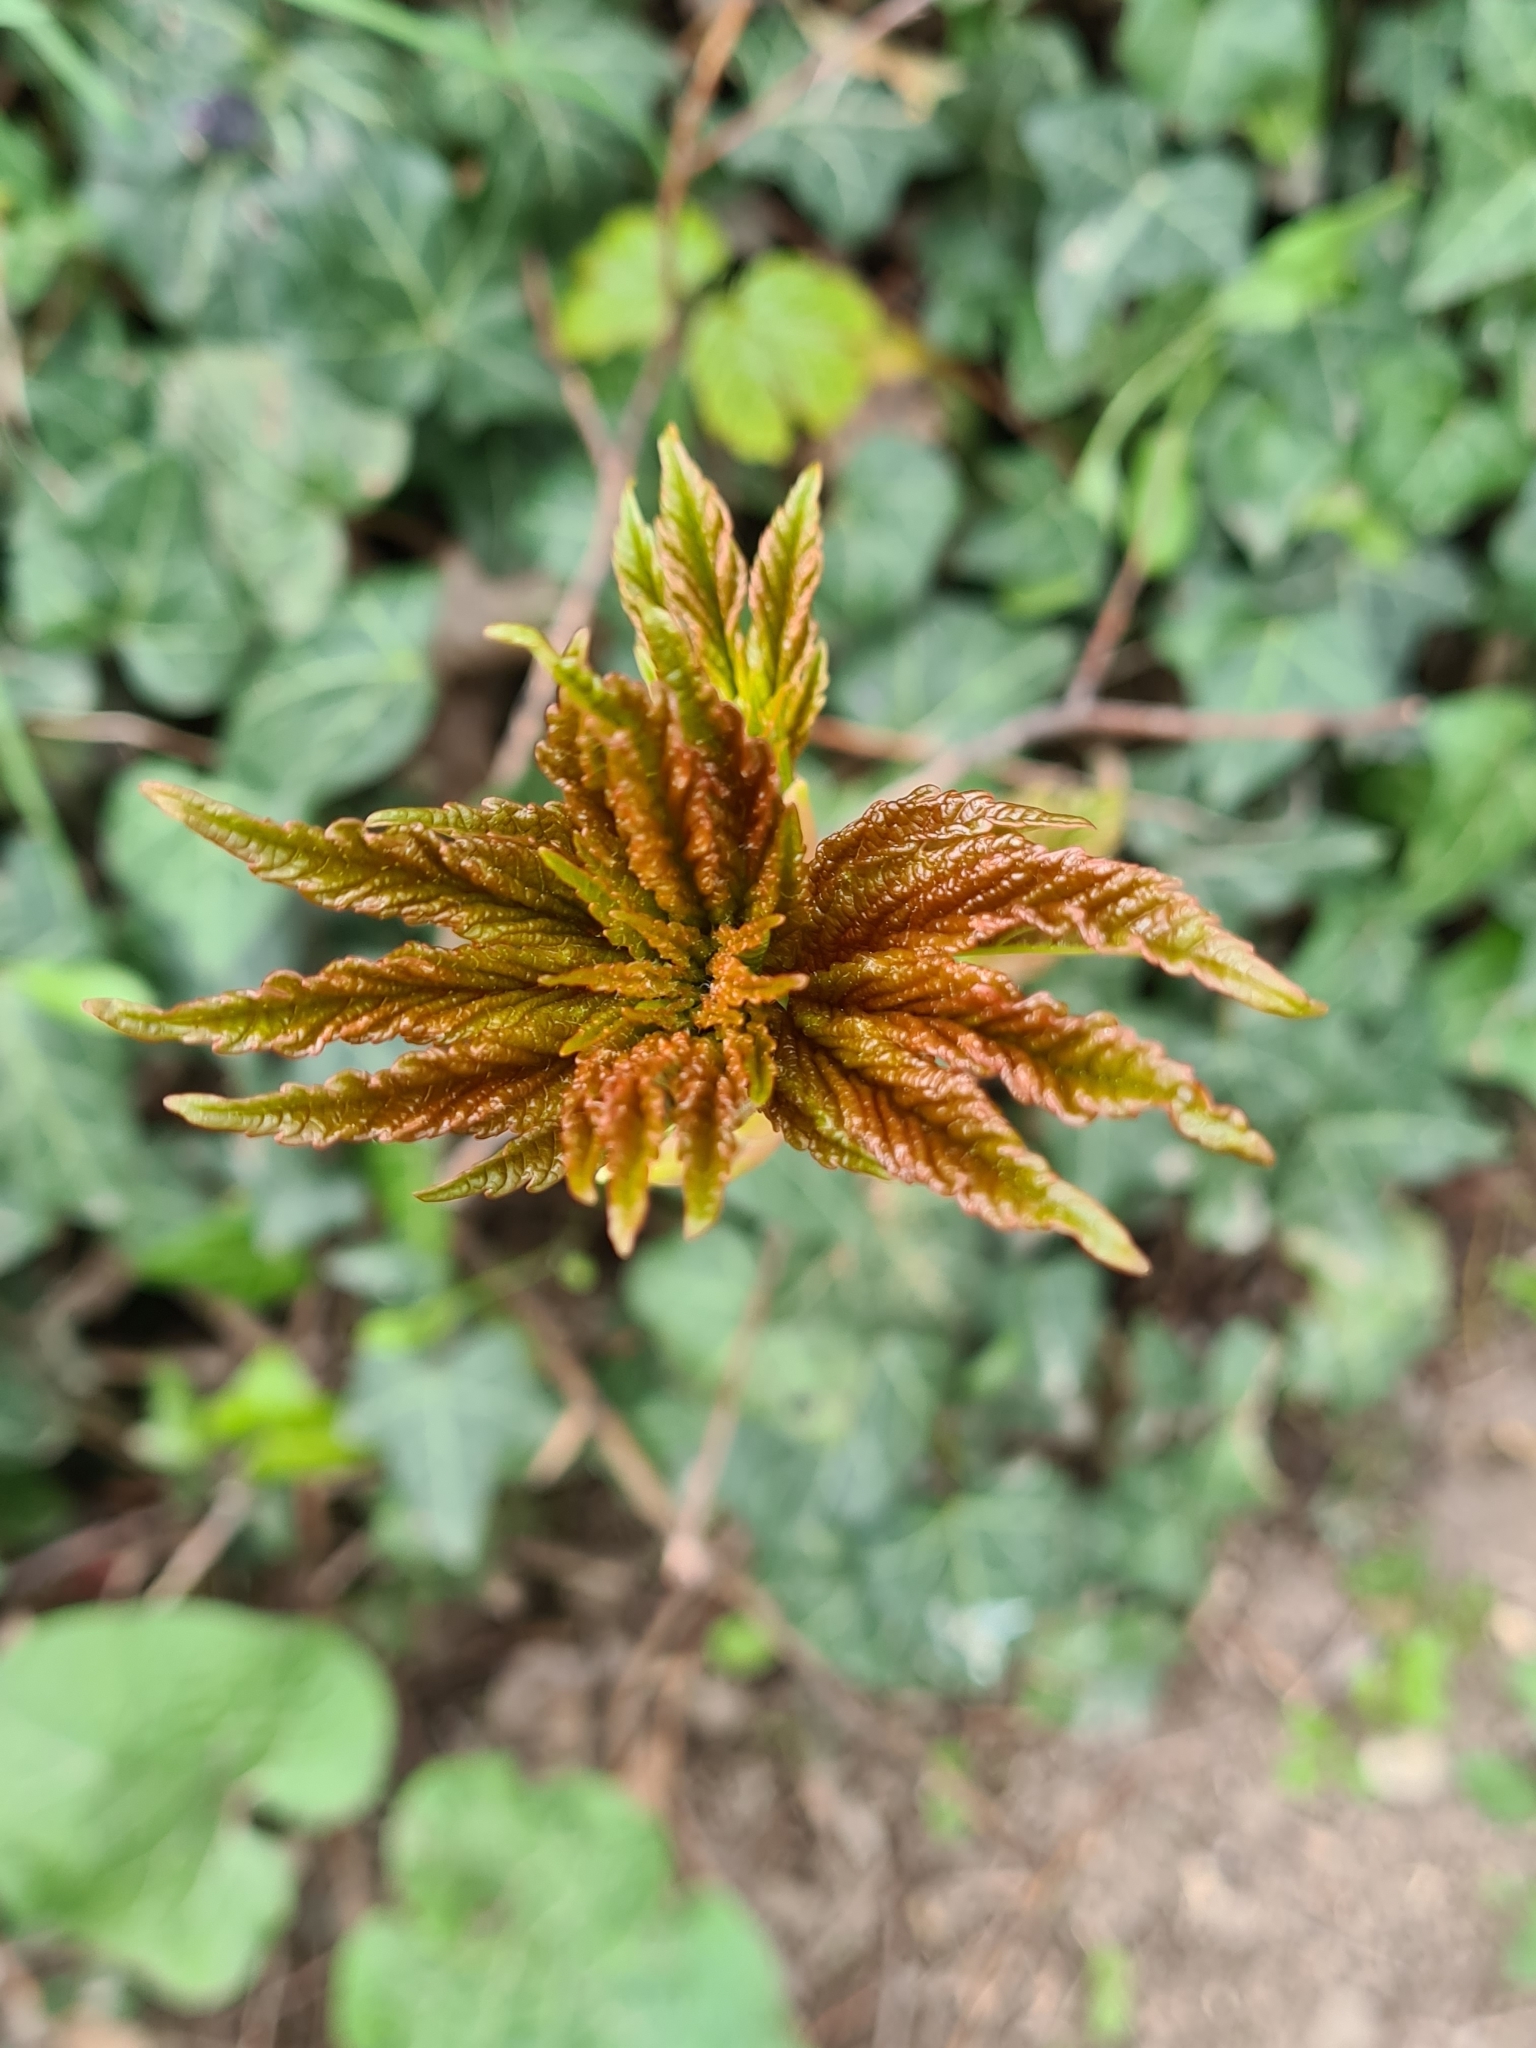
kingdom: Plantae
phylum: Tracheophyta
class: Magnoliopsida
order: Sapindales
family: Sapindaceae
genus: Acer
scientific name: Acer pseudoplatanus
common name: Sycamore
